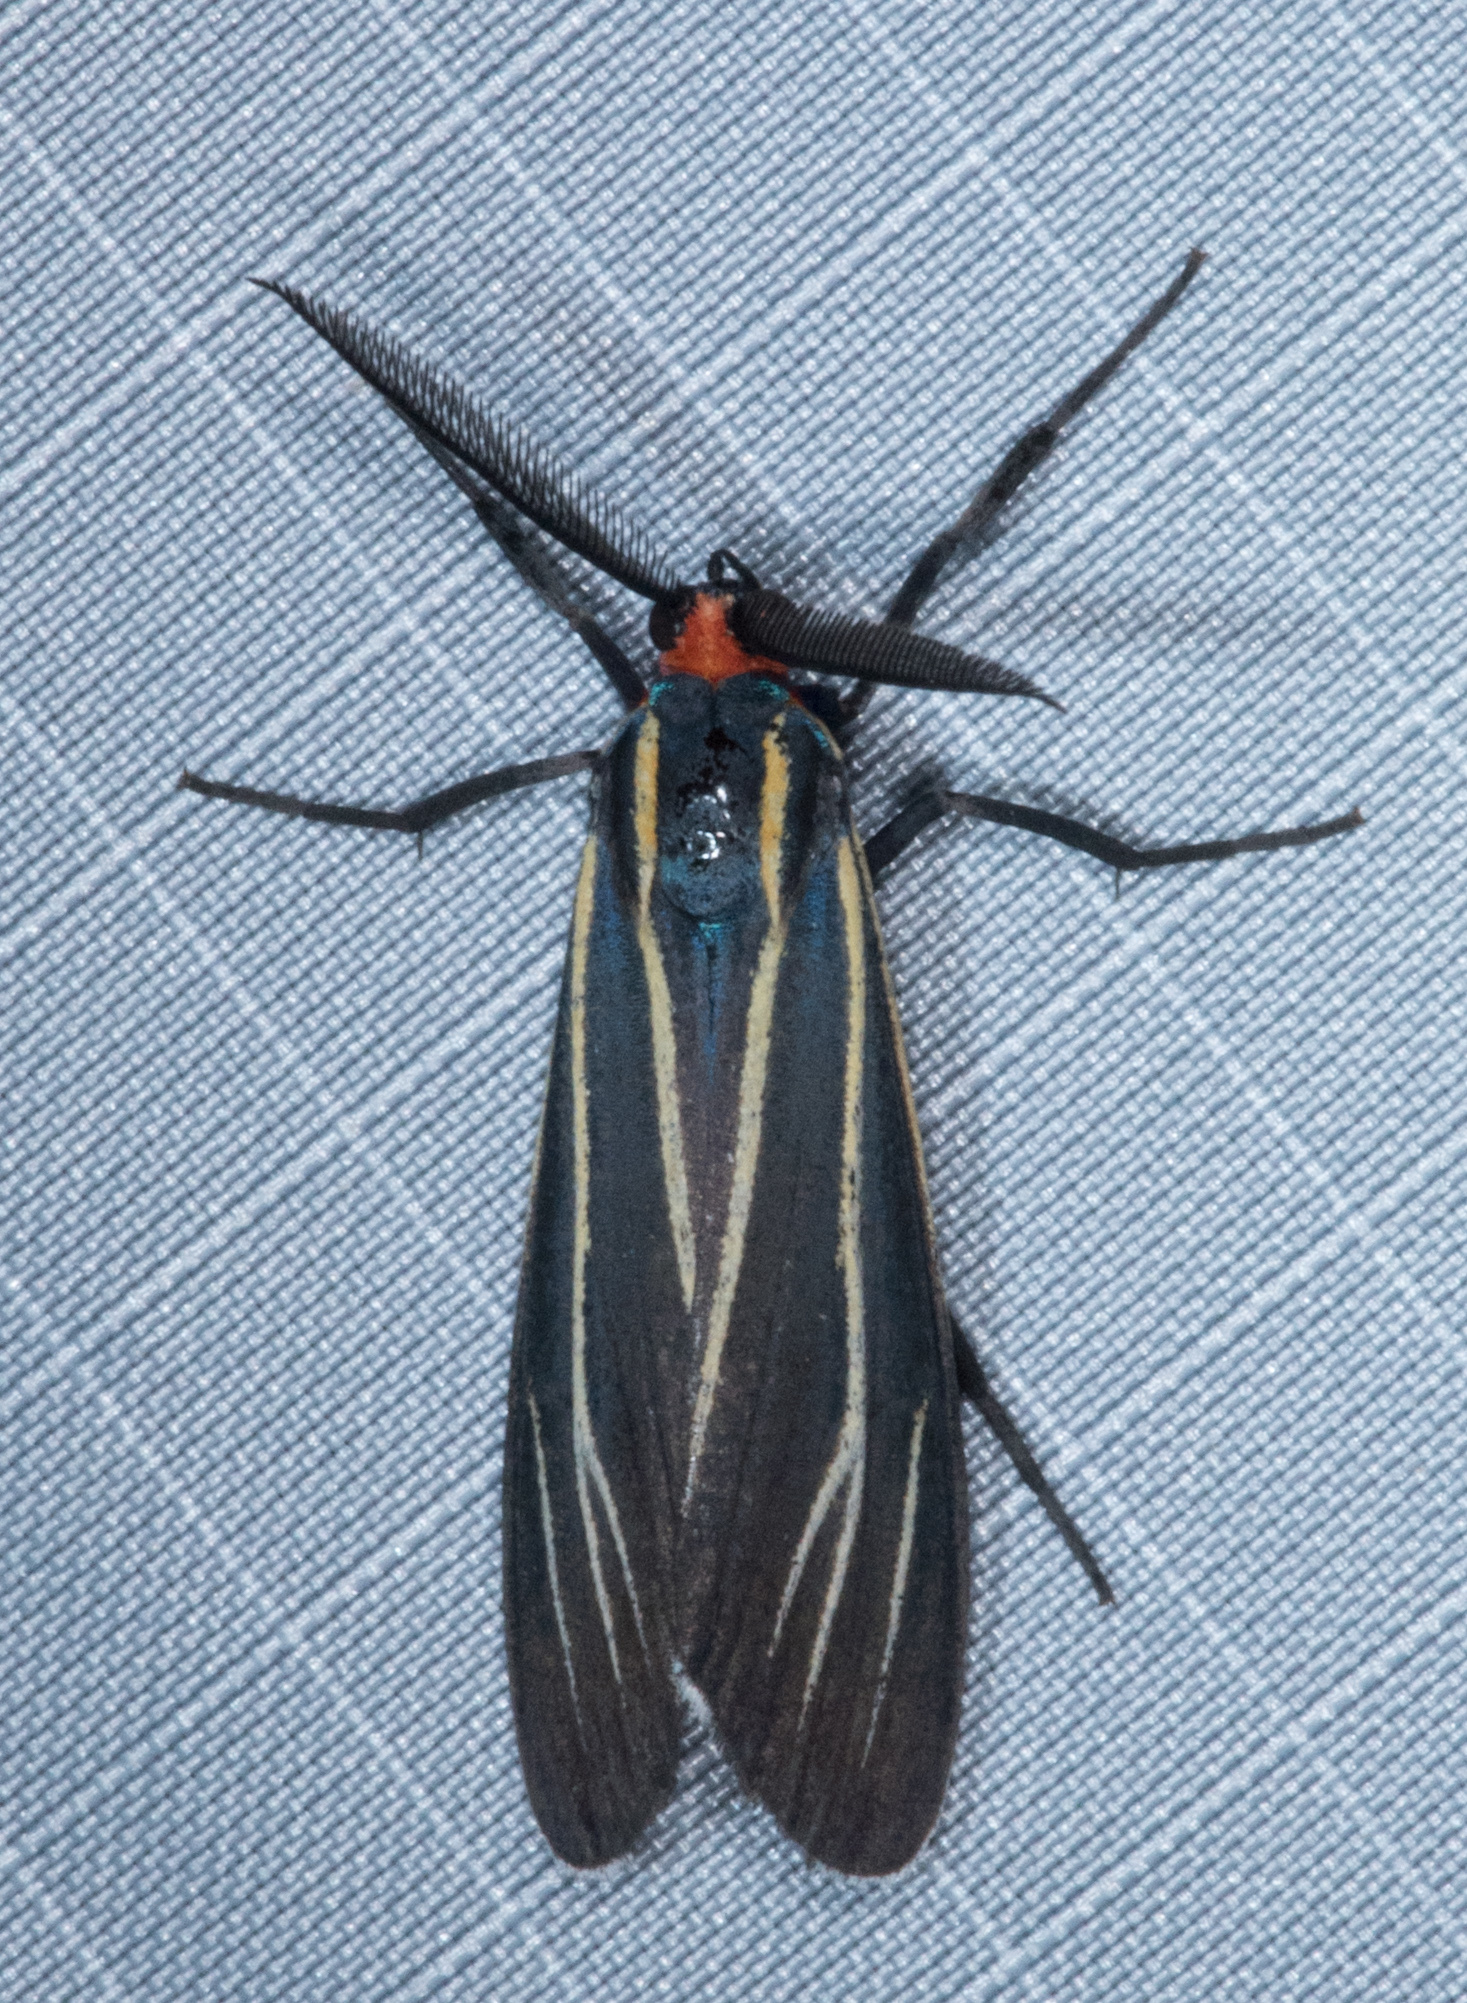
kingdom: Animalia
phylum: Arthropoda
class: Insecta
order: Lepidoptera
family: Erebidae
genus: Ctenucha
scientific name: Ctenucha venosa
